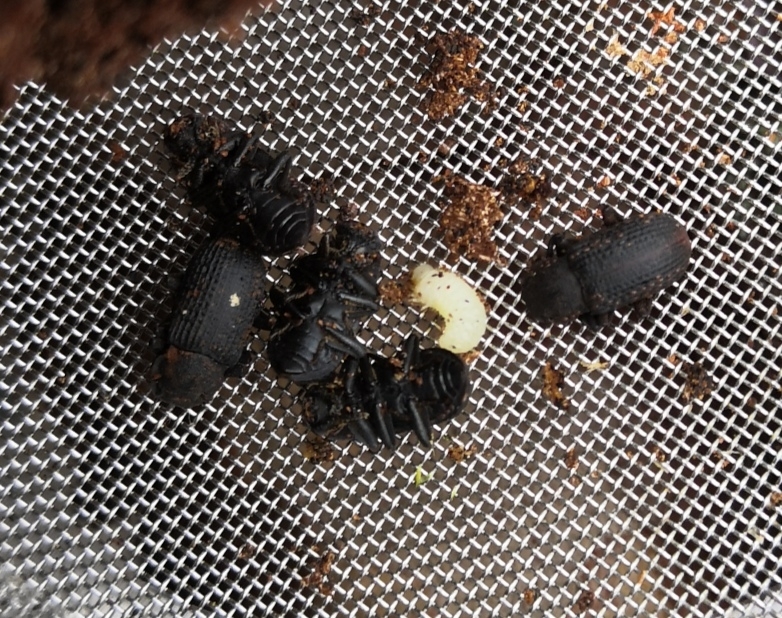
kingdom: Animalia
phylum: Arthropoda
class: Insecta
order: Coleoptera
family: Tenebrionidae
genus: Bolitophagus
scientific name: Bolitophagus reticulatus
